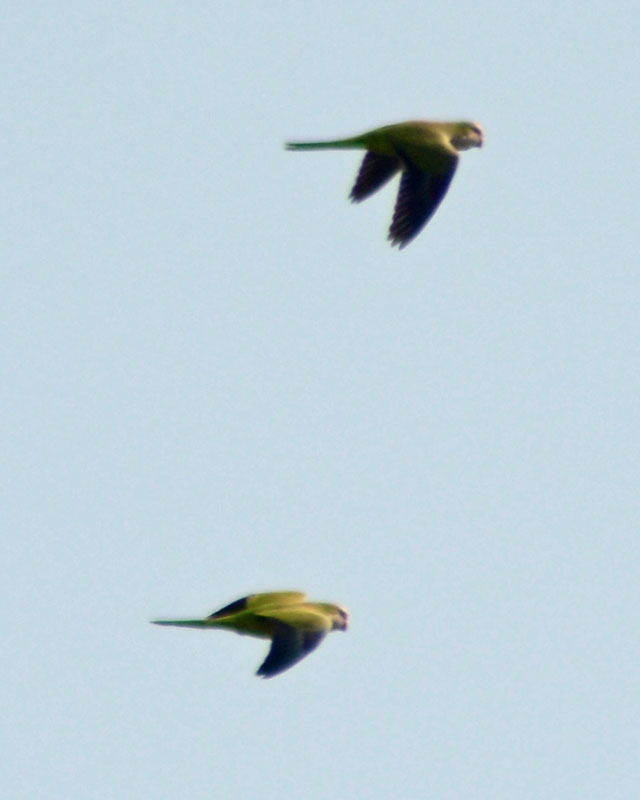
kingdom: Animalia
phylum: Chordata
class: Aves
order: Psittaciformes
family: Psittacidae
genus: Myiopsitta
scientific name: Myiopsitta monachus
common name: Monk parakeet
